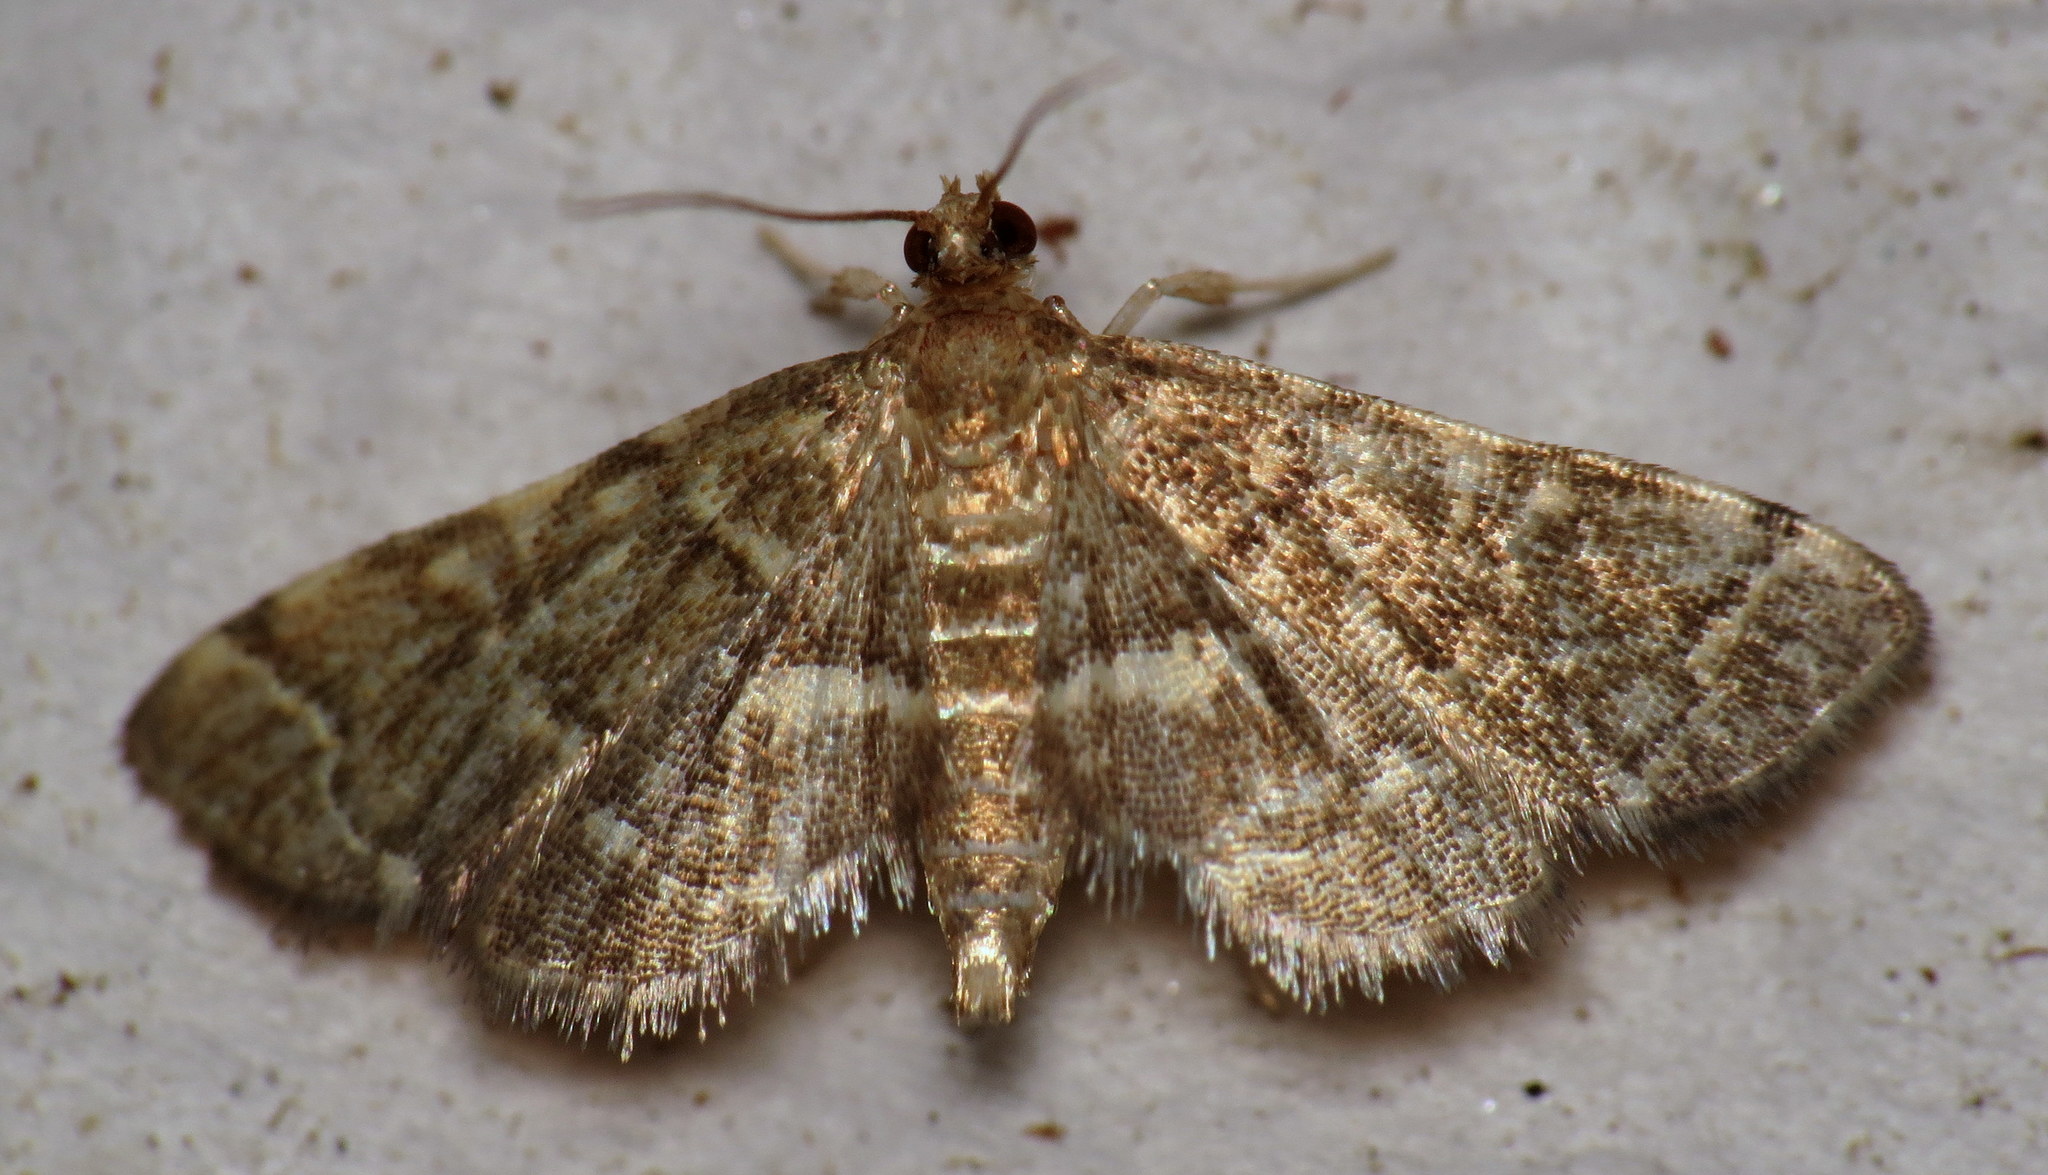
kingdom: Animalia
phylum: Arthropoda
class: Insecta
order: Lepidoptera
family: Crambidae
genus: Anageshna
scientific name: Anageshna primordialis
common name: Yellow-spotted webworm moth
